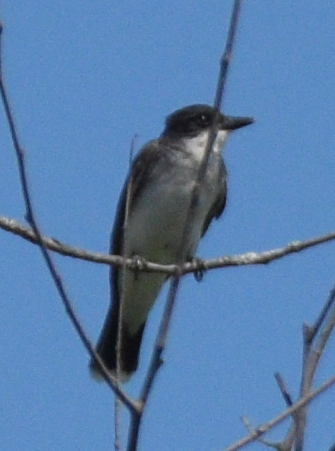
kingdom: Animalia
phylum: Chordata
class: Aves
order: Passeriformes
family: Tyrannidae
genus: Tyrannus
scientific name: Tyrannus tyrannus
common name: Eastern kingbird
